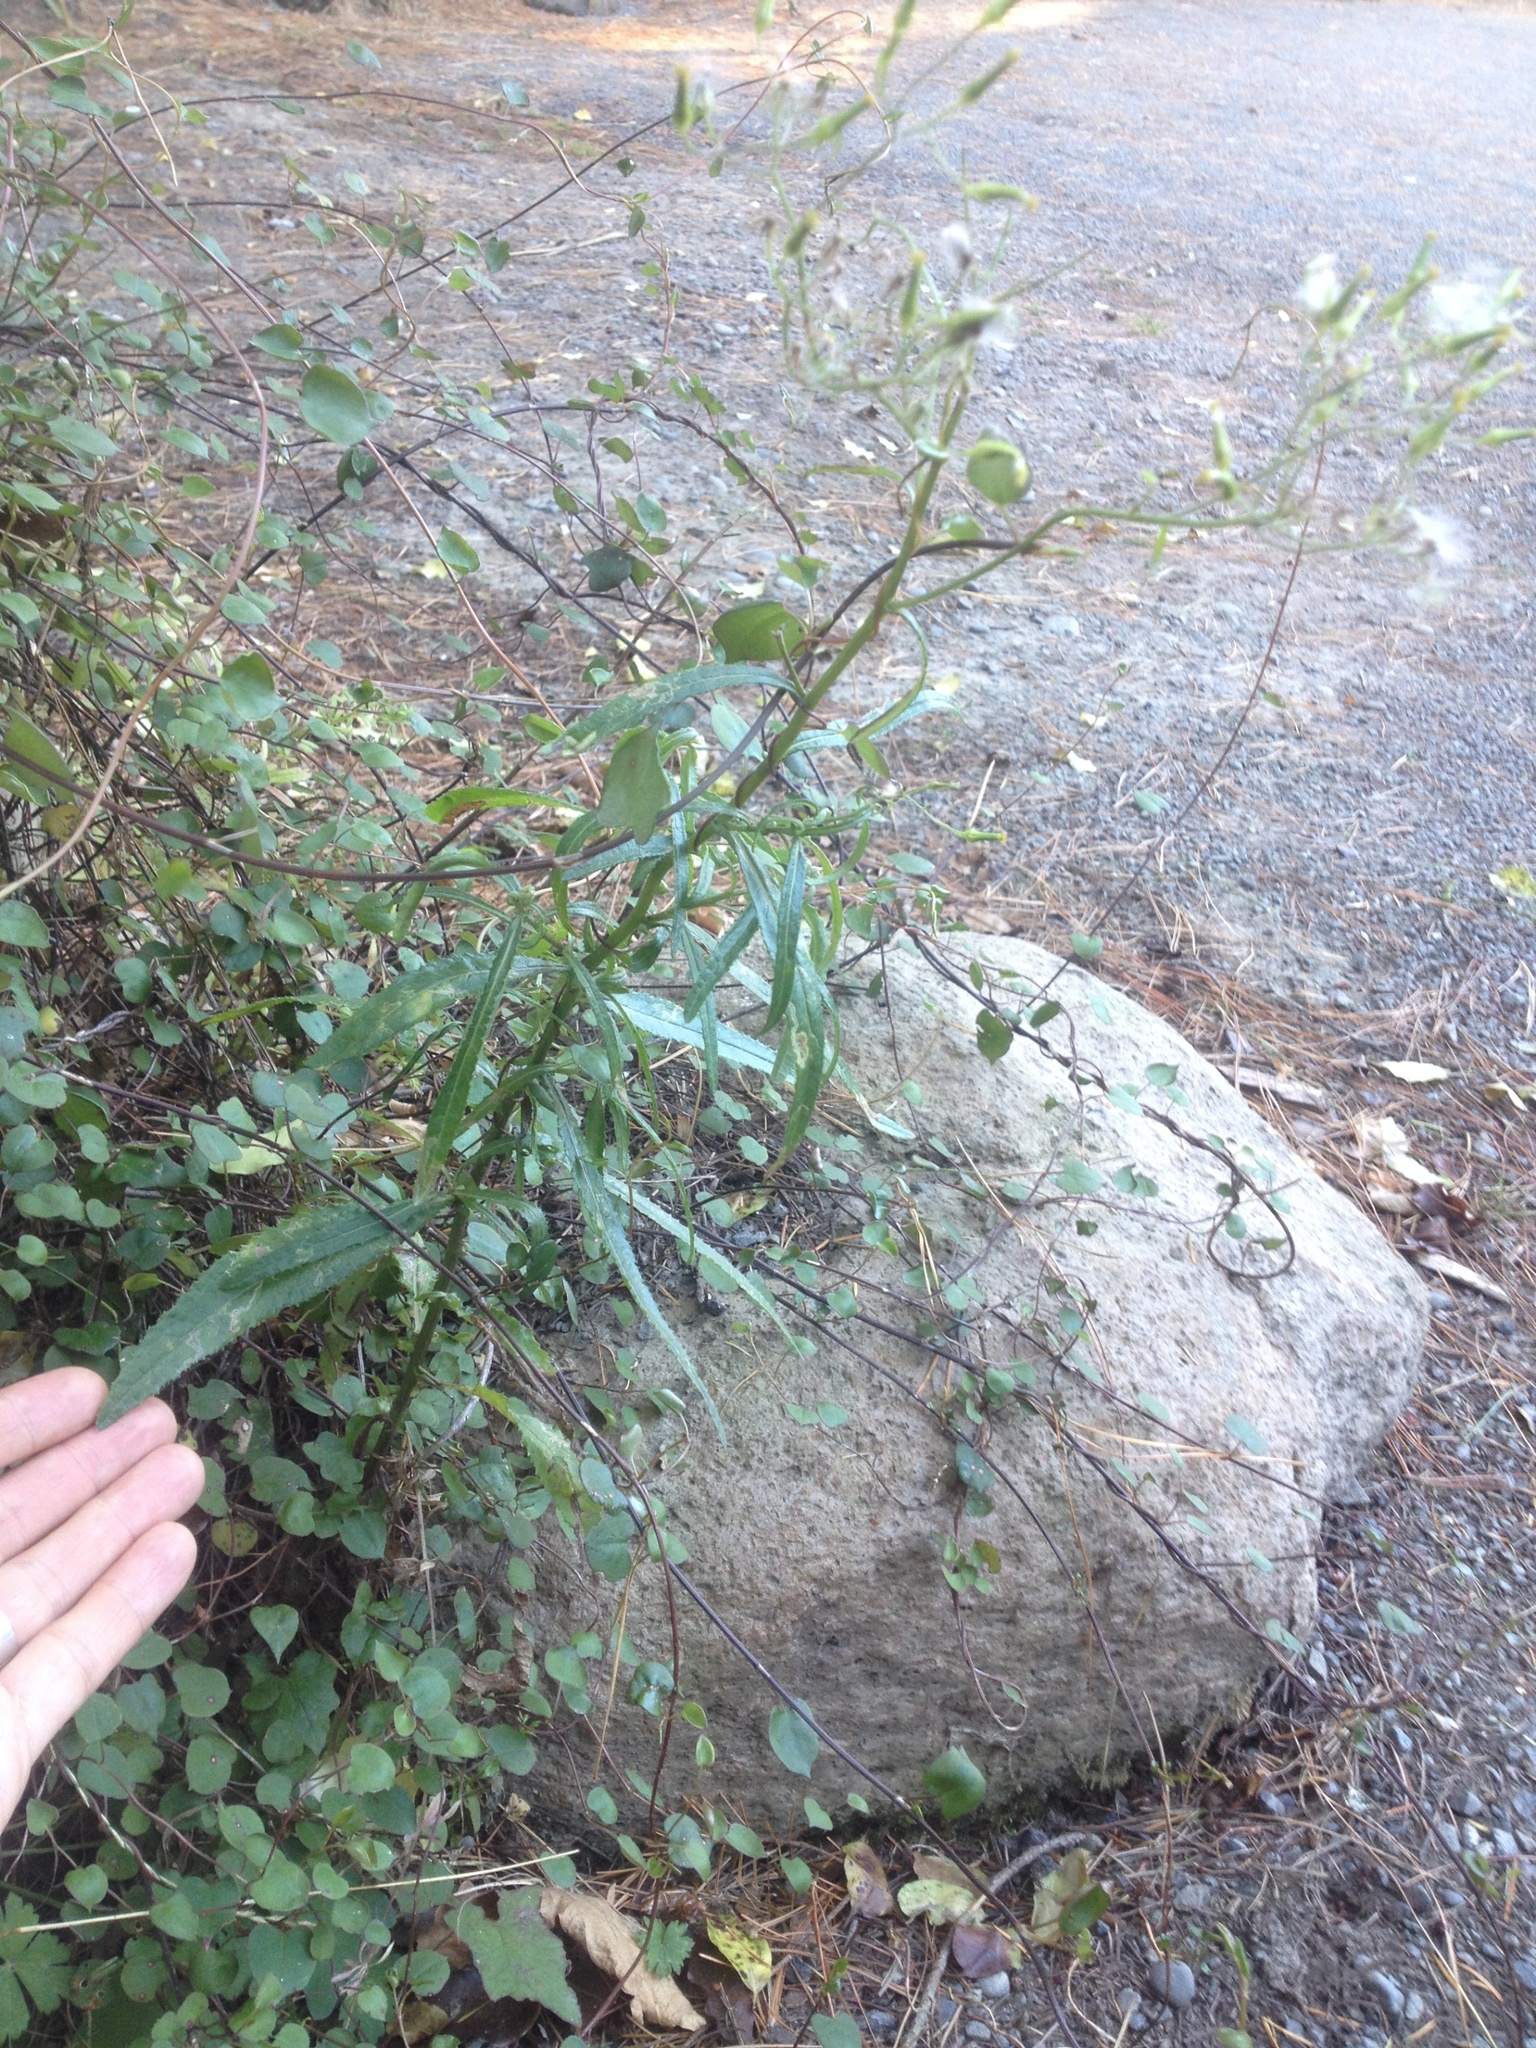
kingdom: Plantae
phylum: Tracheophyta
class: Magnoliopsida
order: Asterales
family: Asteraceae
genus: Senecio
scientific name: Senecio minimus
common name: Toothed fireweed
